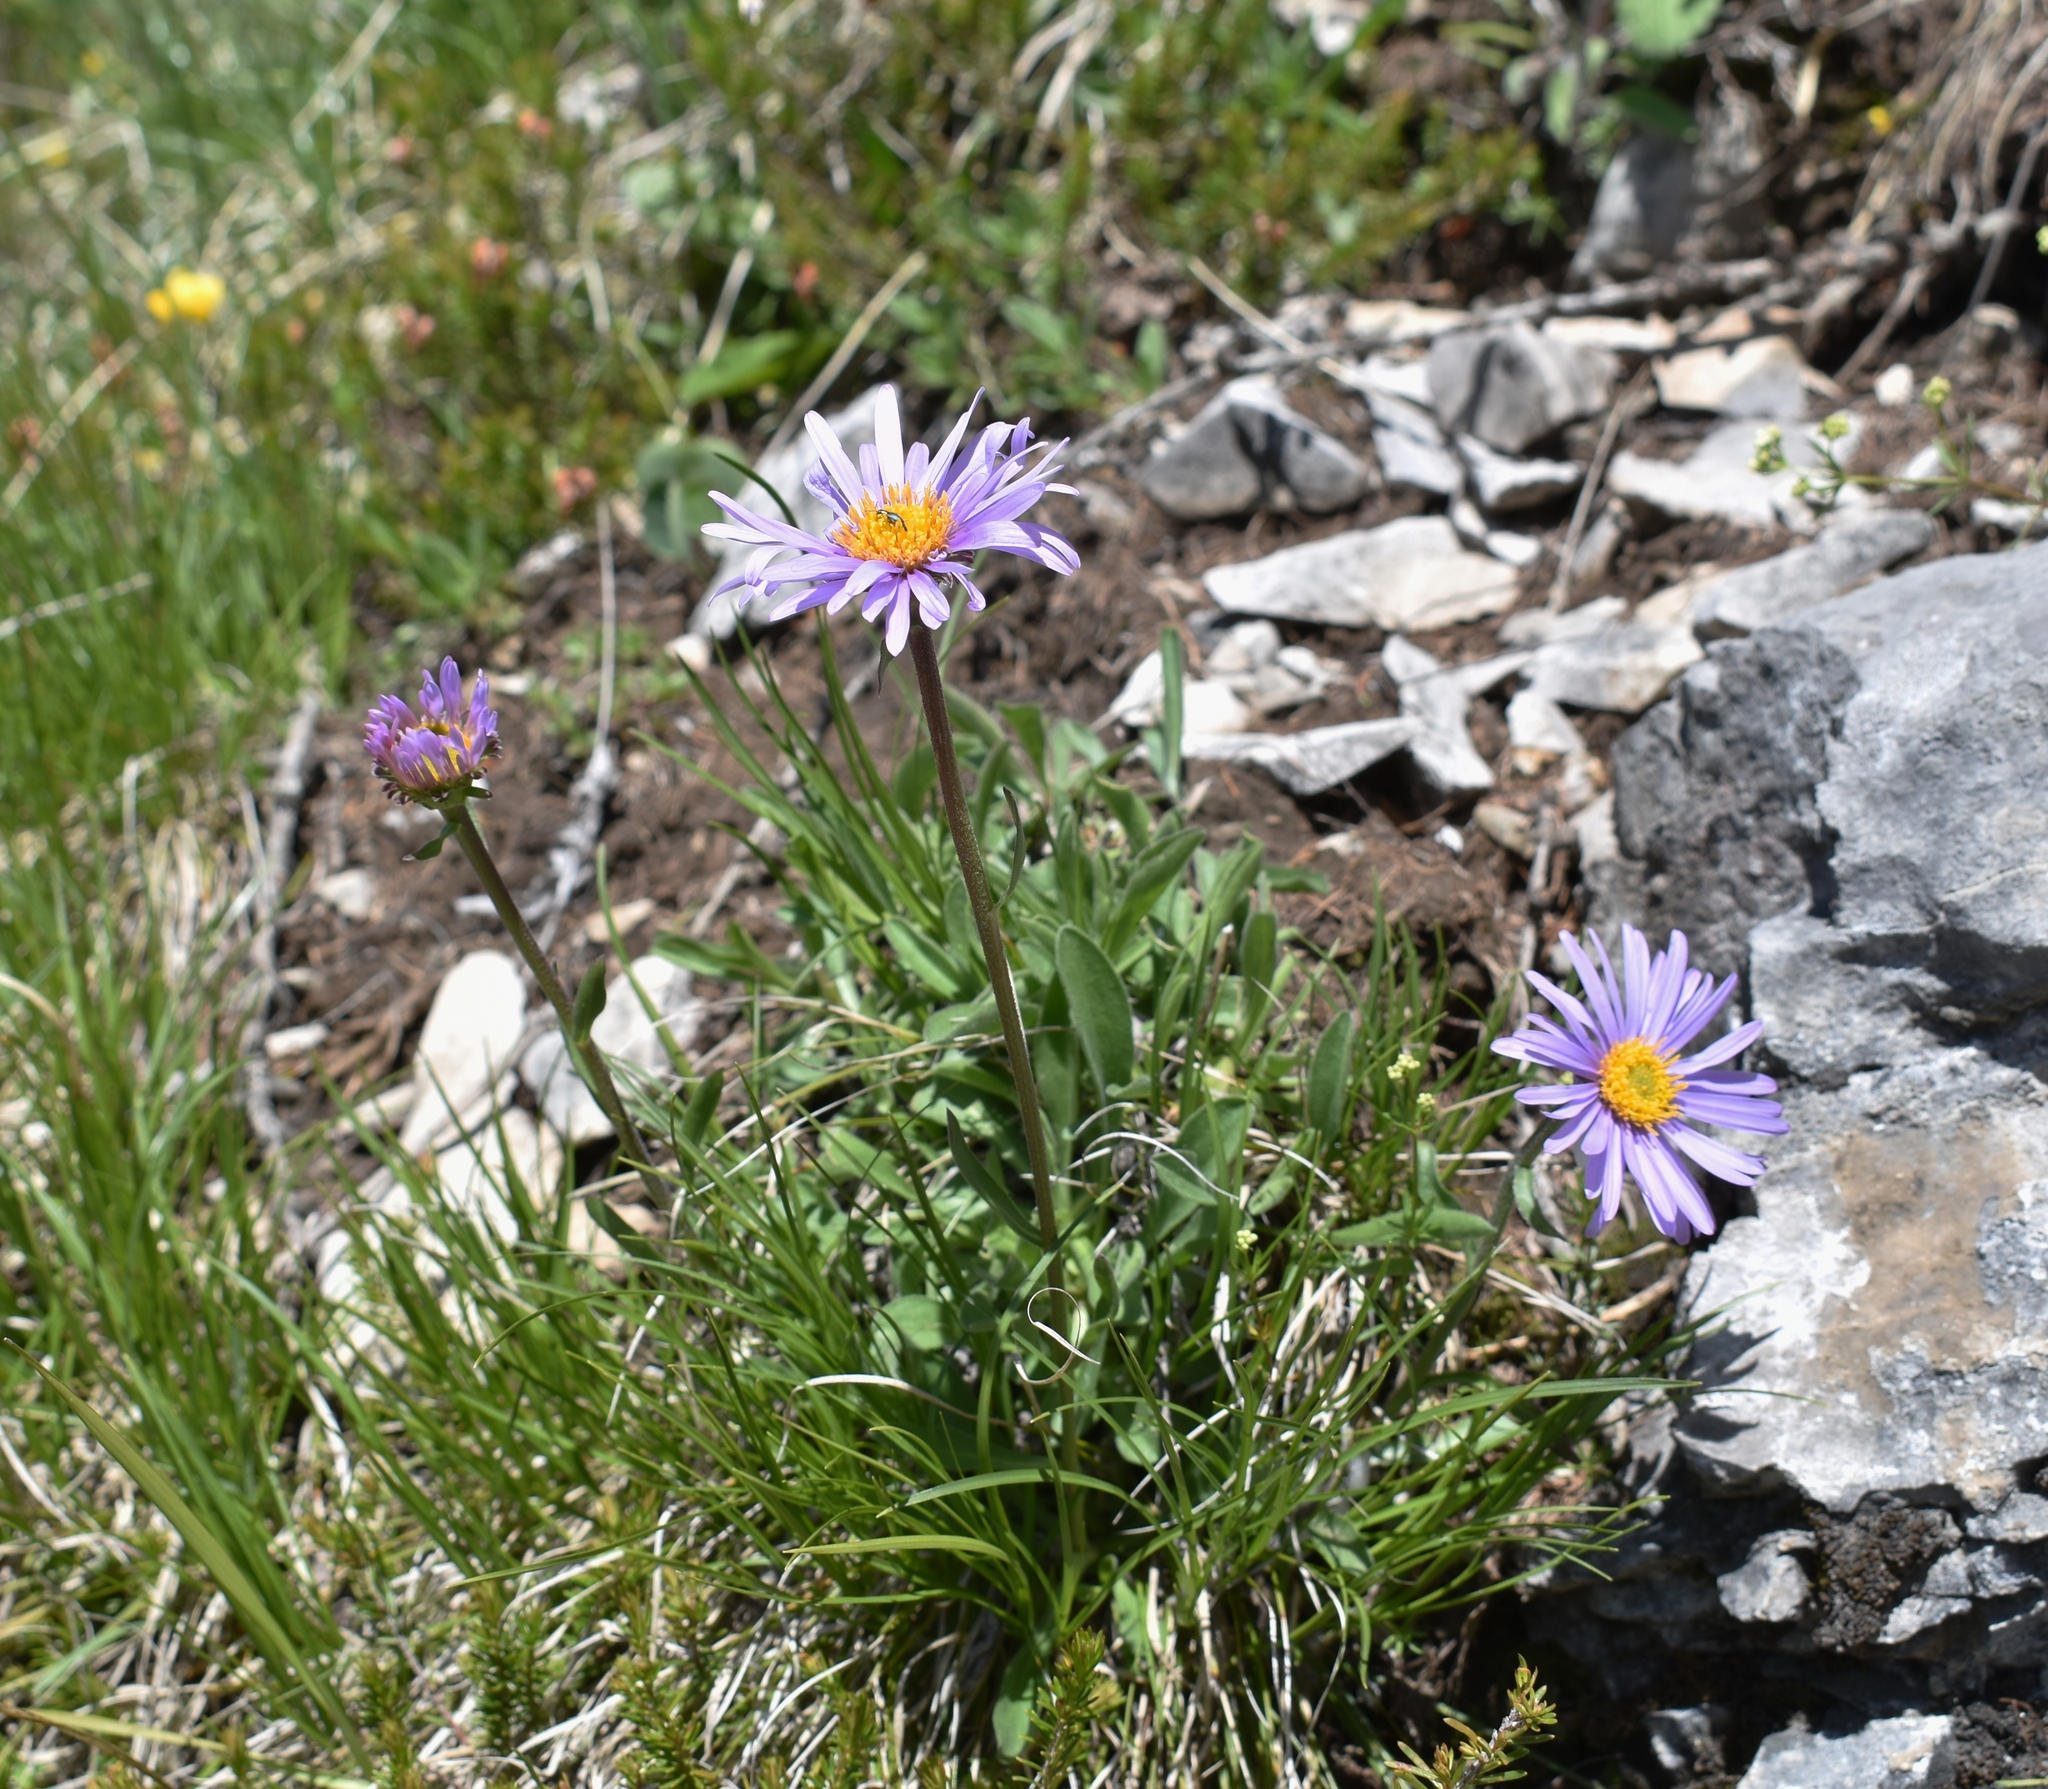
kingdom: Plantae
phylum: Tracheophyta
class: Magnoliopsida
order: Asterales
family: Asteraceae
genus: Aster
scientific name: Aster alpinus
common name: Alpine aster
